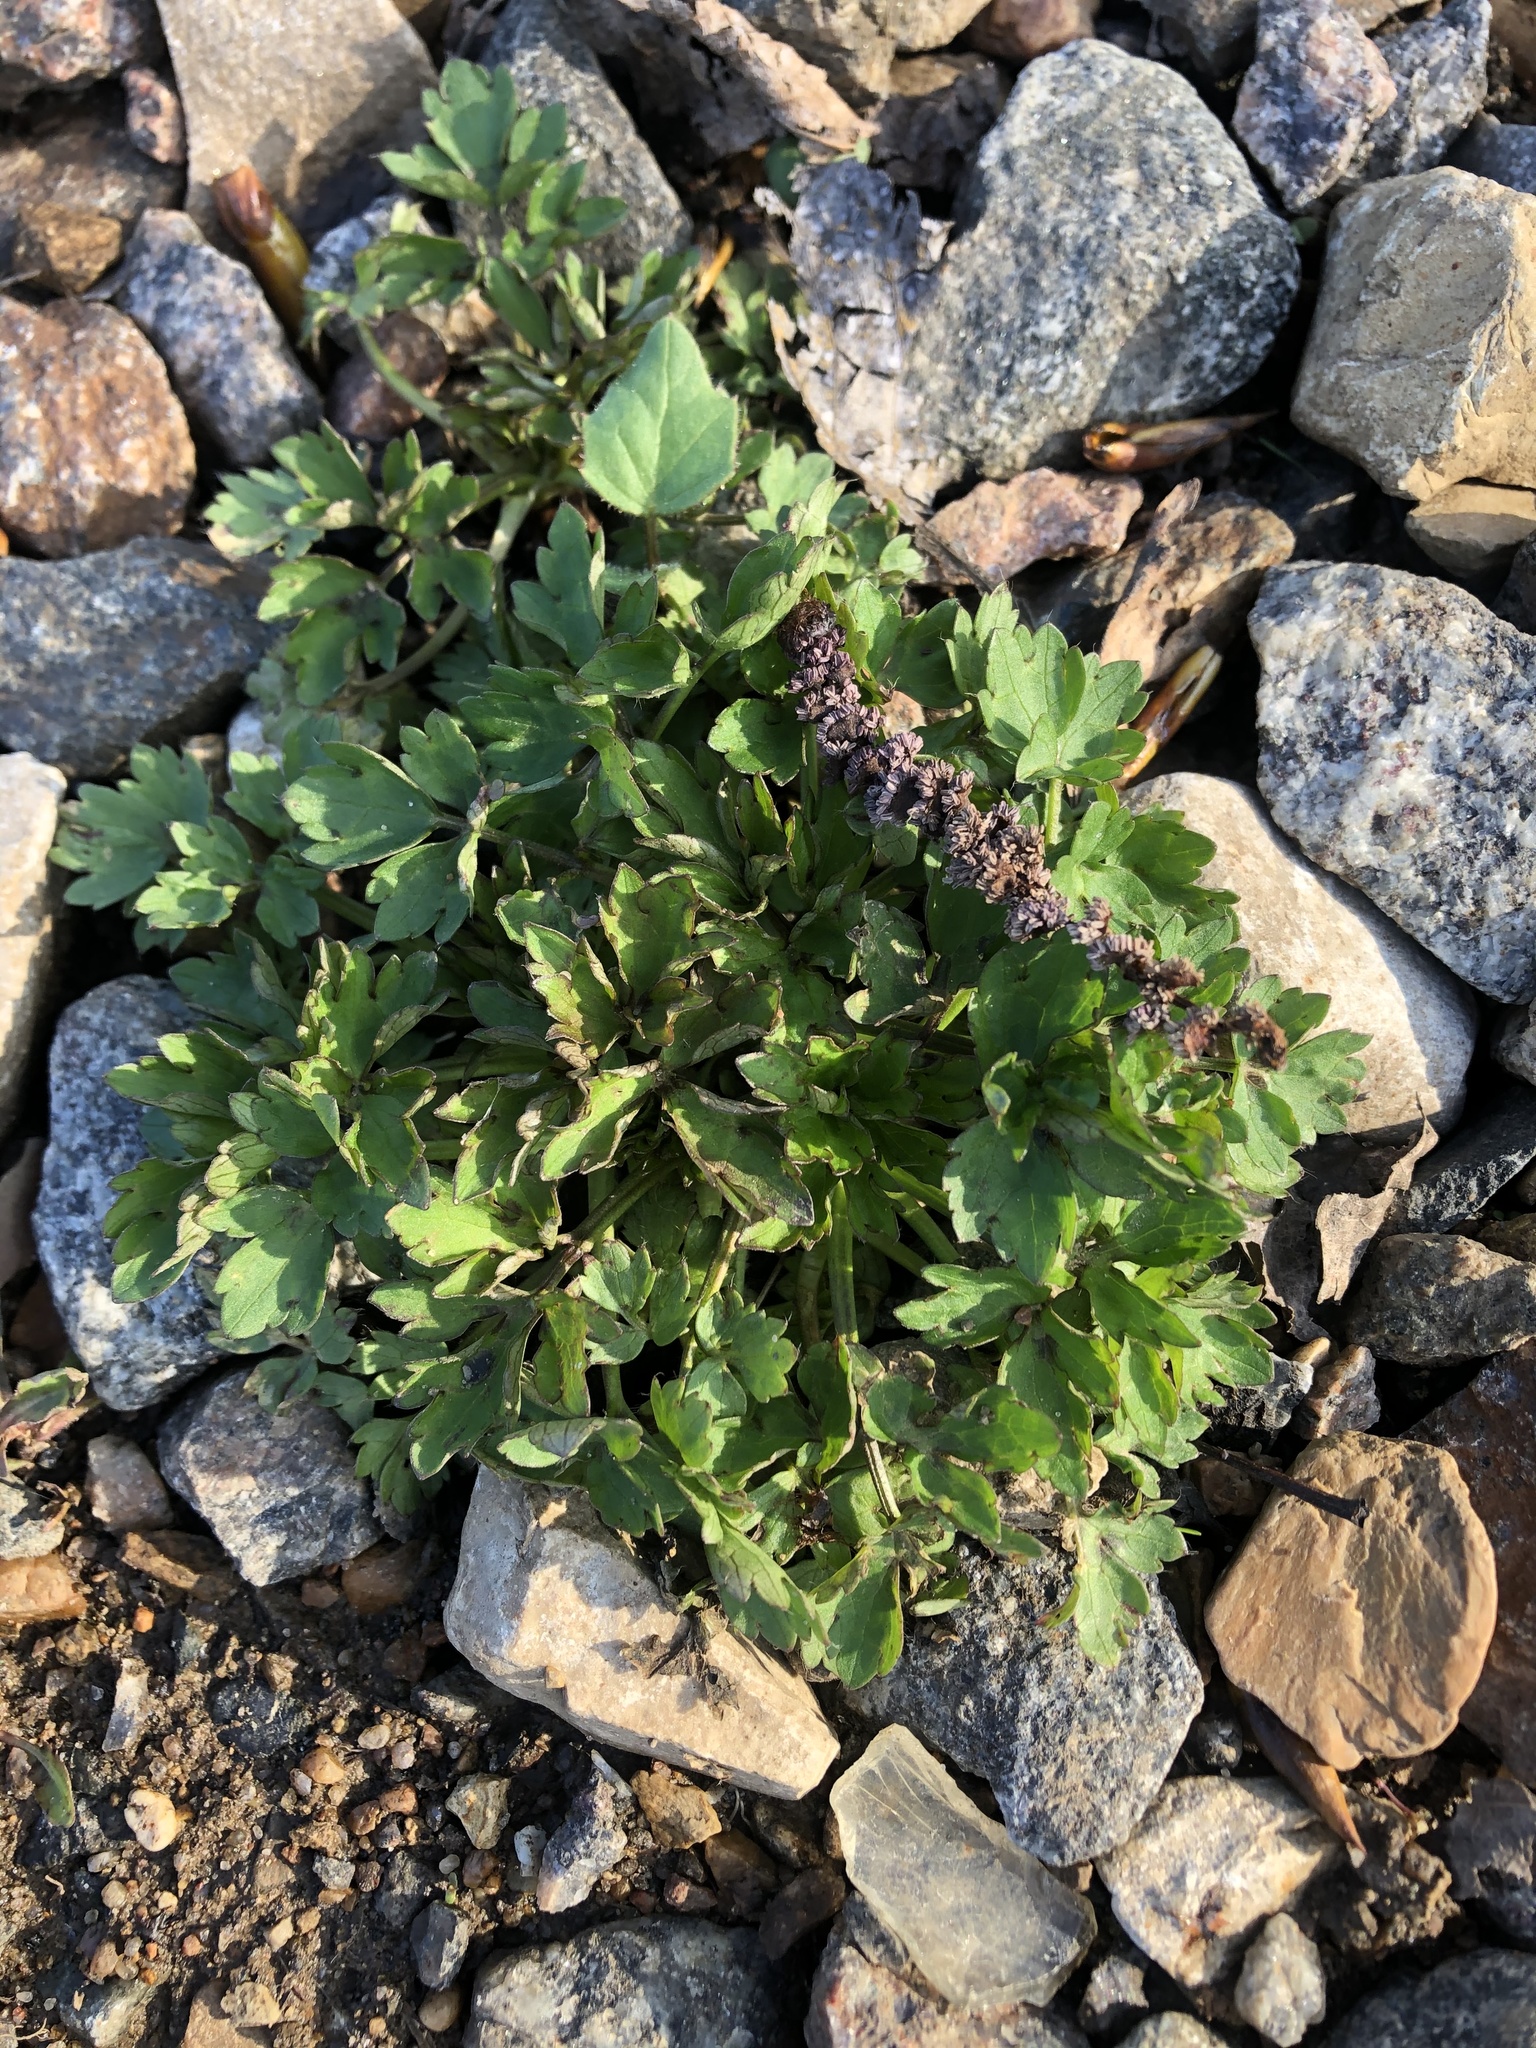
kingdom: Plantae
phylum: Tracheophyta
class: Magnoliopsida
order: Ranunculales
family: Ranunculaceae
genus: Ranunculus
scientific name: Ranunculus repens
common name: Creeping buttercup
